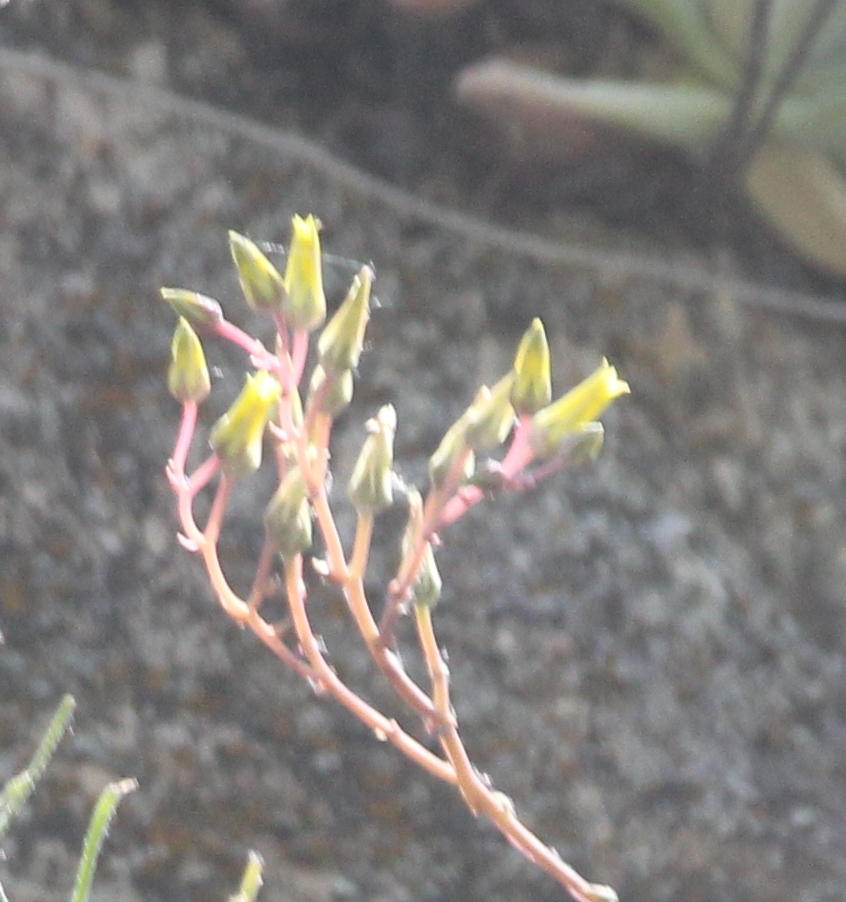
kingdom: Plantae
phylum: Tracheophyta
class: Magnoliopsida
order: Saxifragales
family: Crassulaceae
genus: Dudleya
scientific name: Dudleya saxosa
